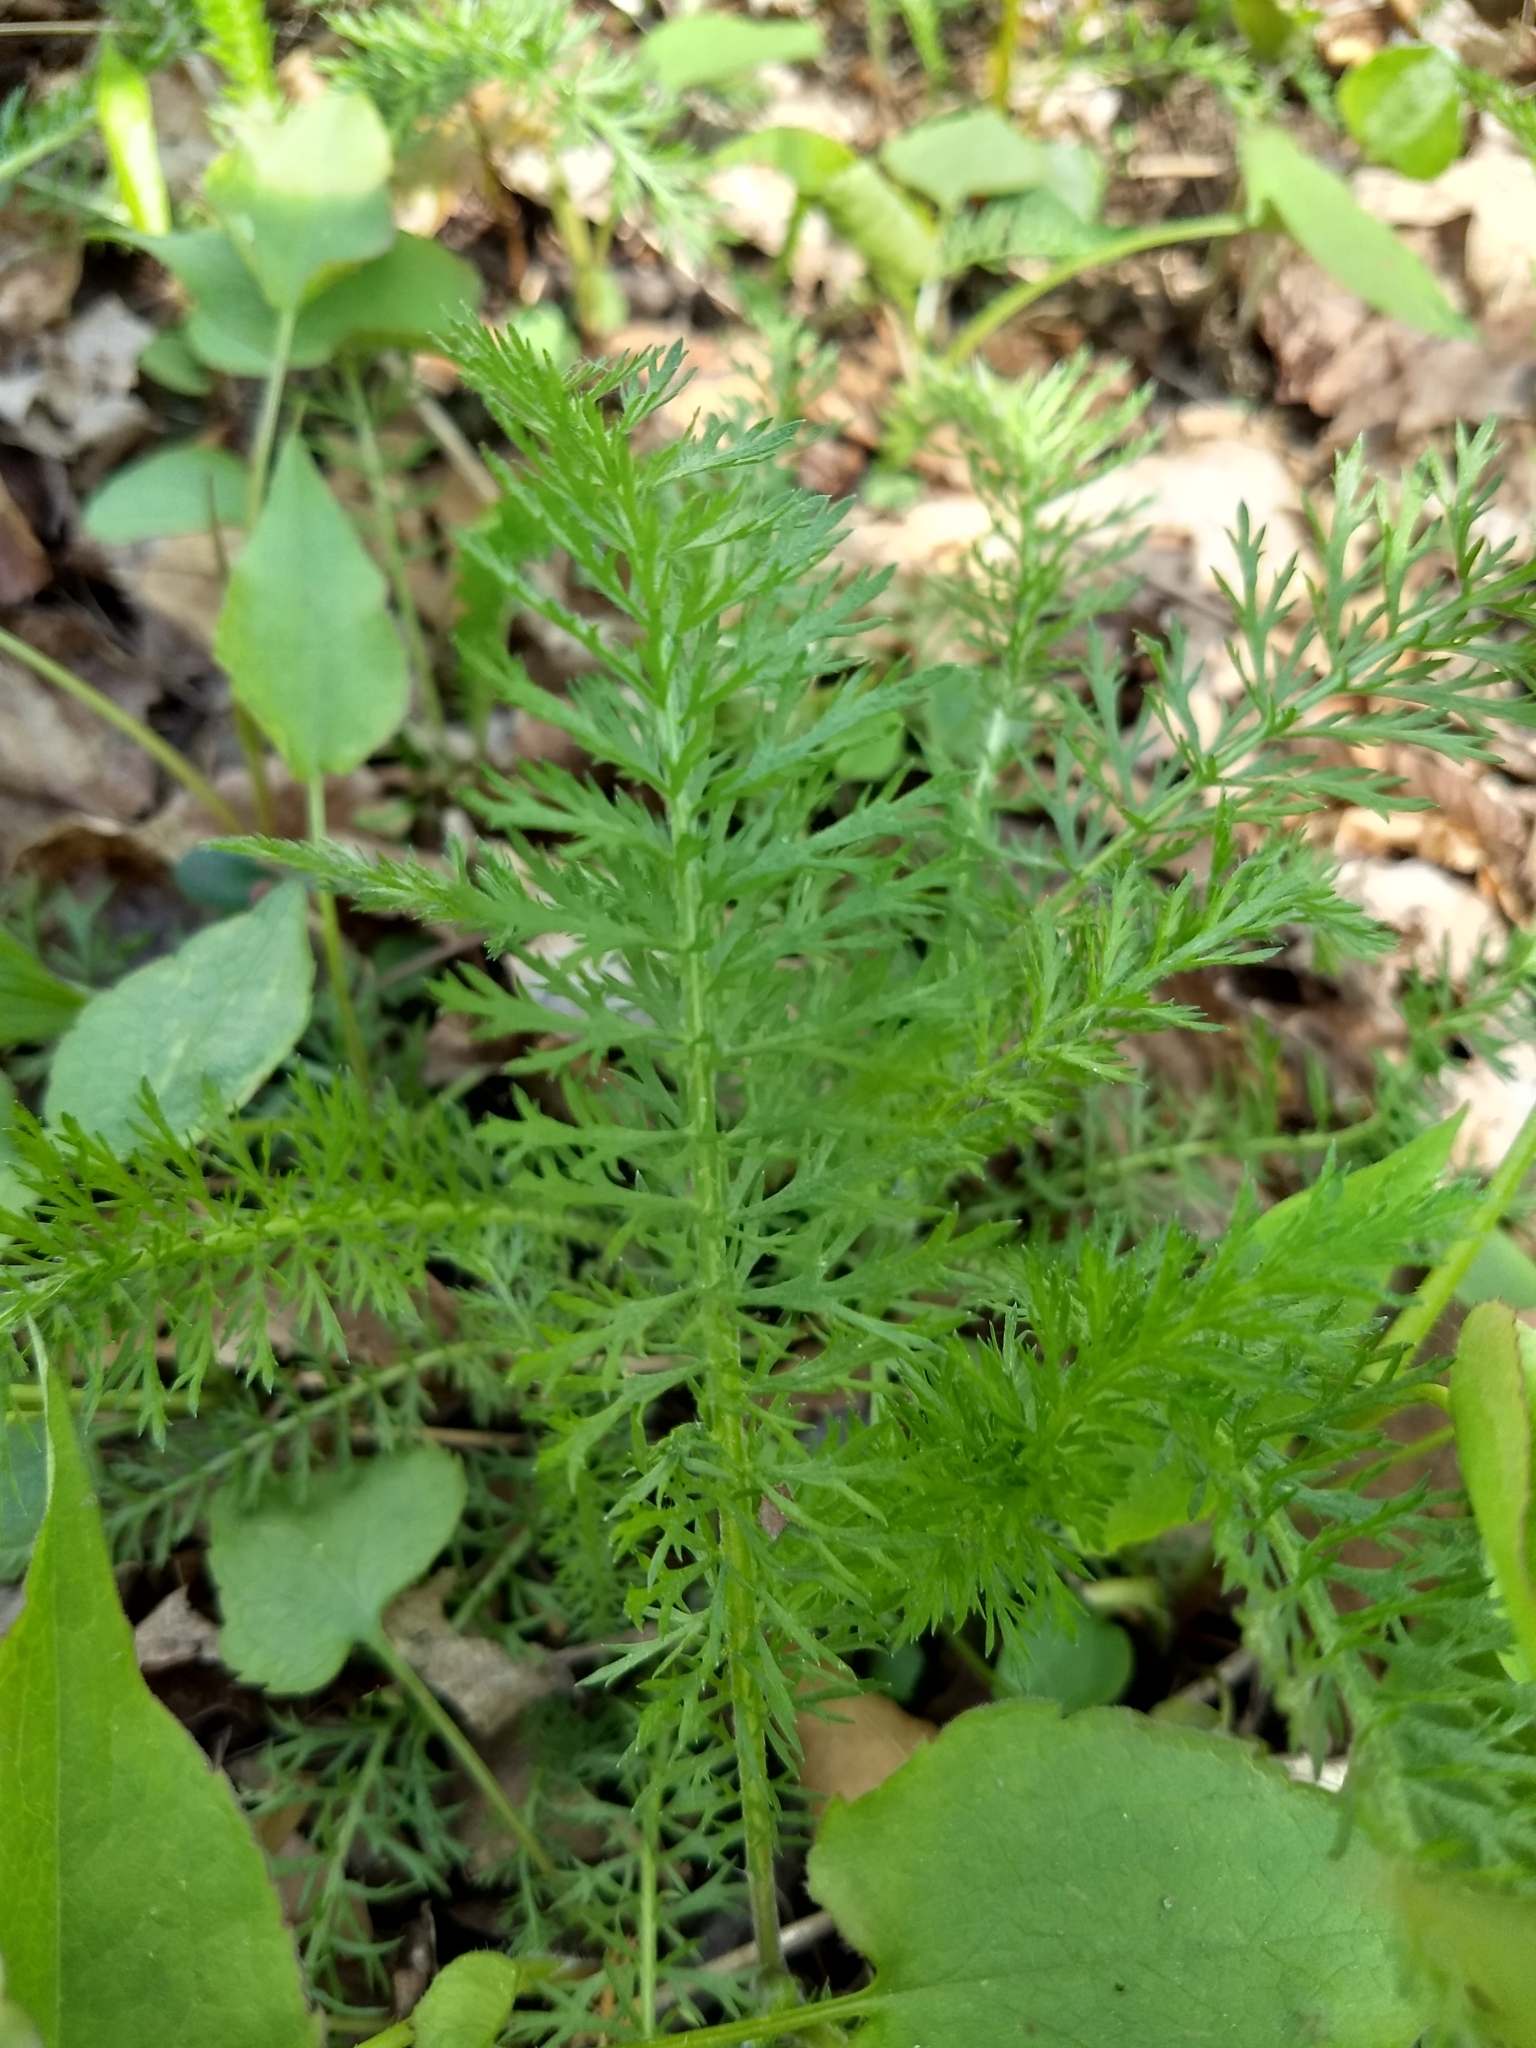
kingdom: Plantae
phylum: Tracheophyta
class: Magnoliopsida
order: Asterales
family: Asteraceae
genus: Achillea
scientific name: Achillea millefolium
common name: Yarrow
